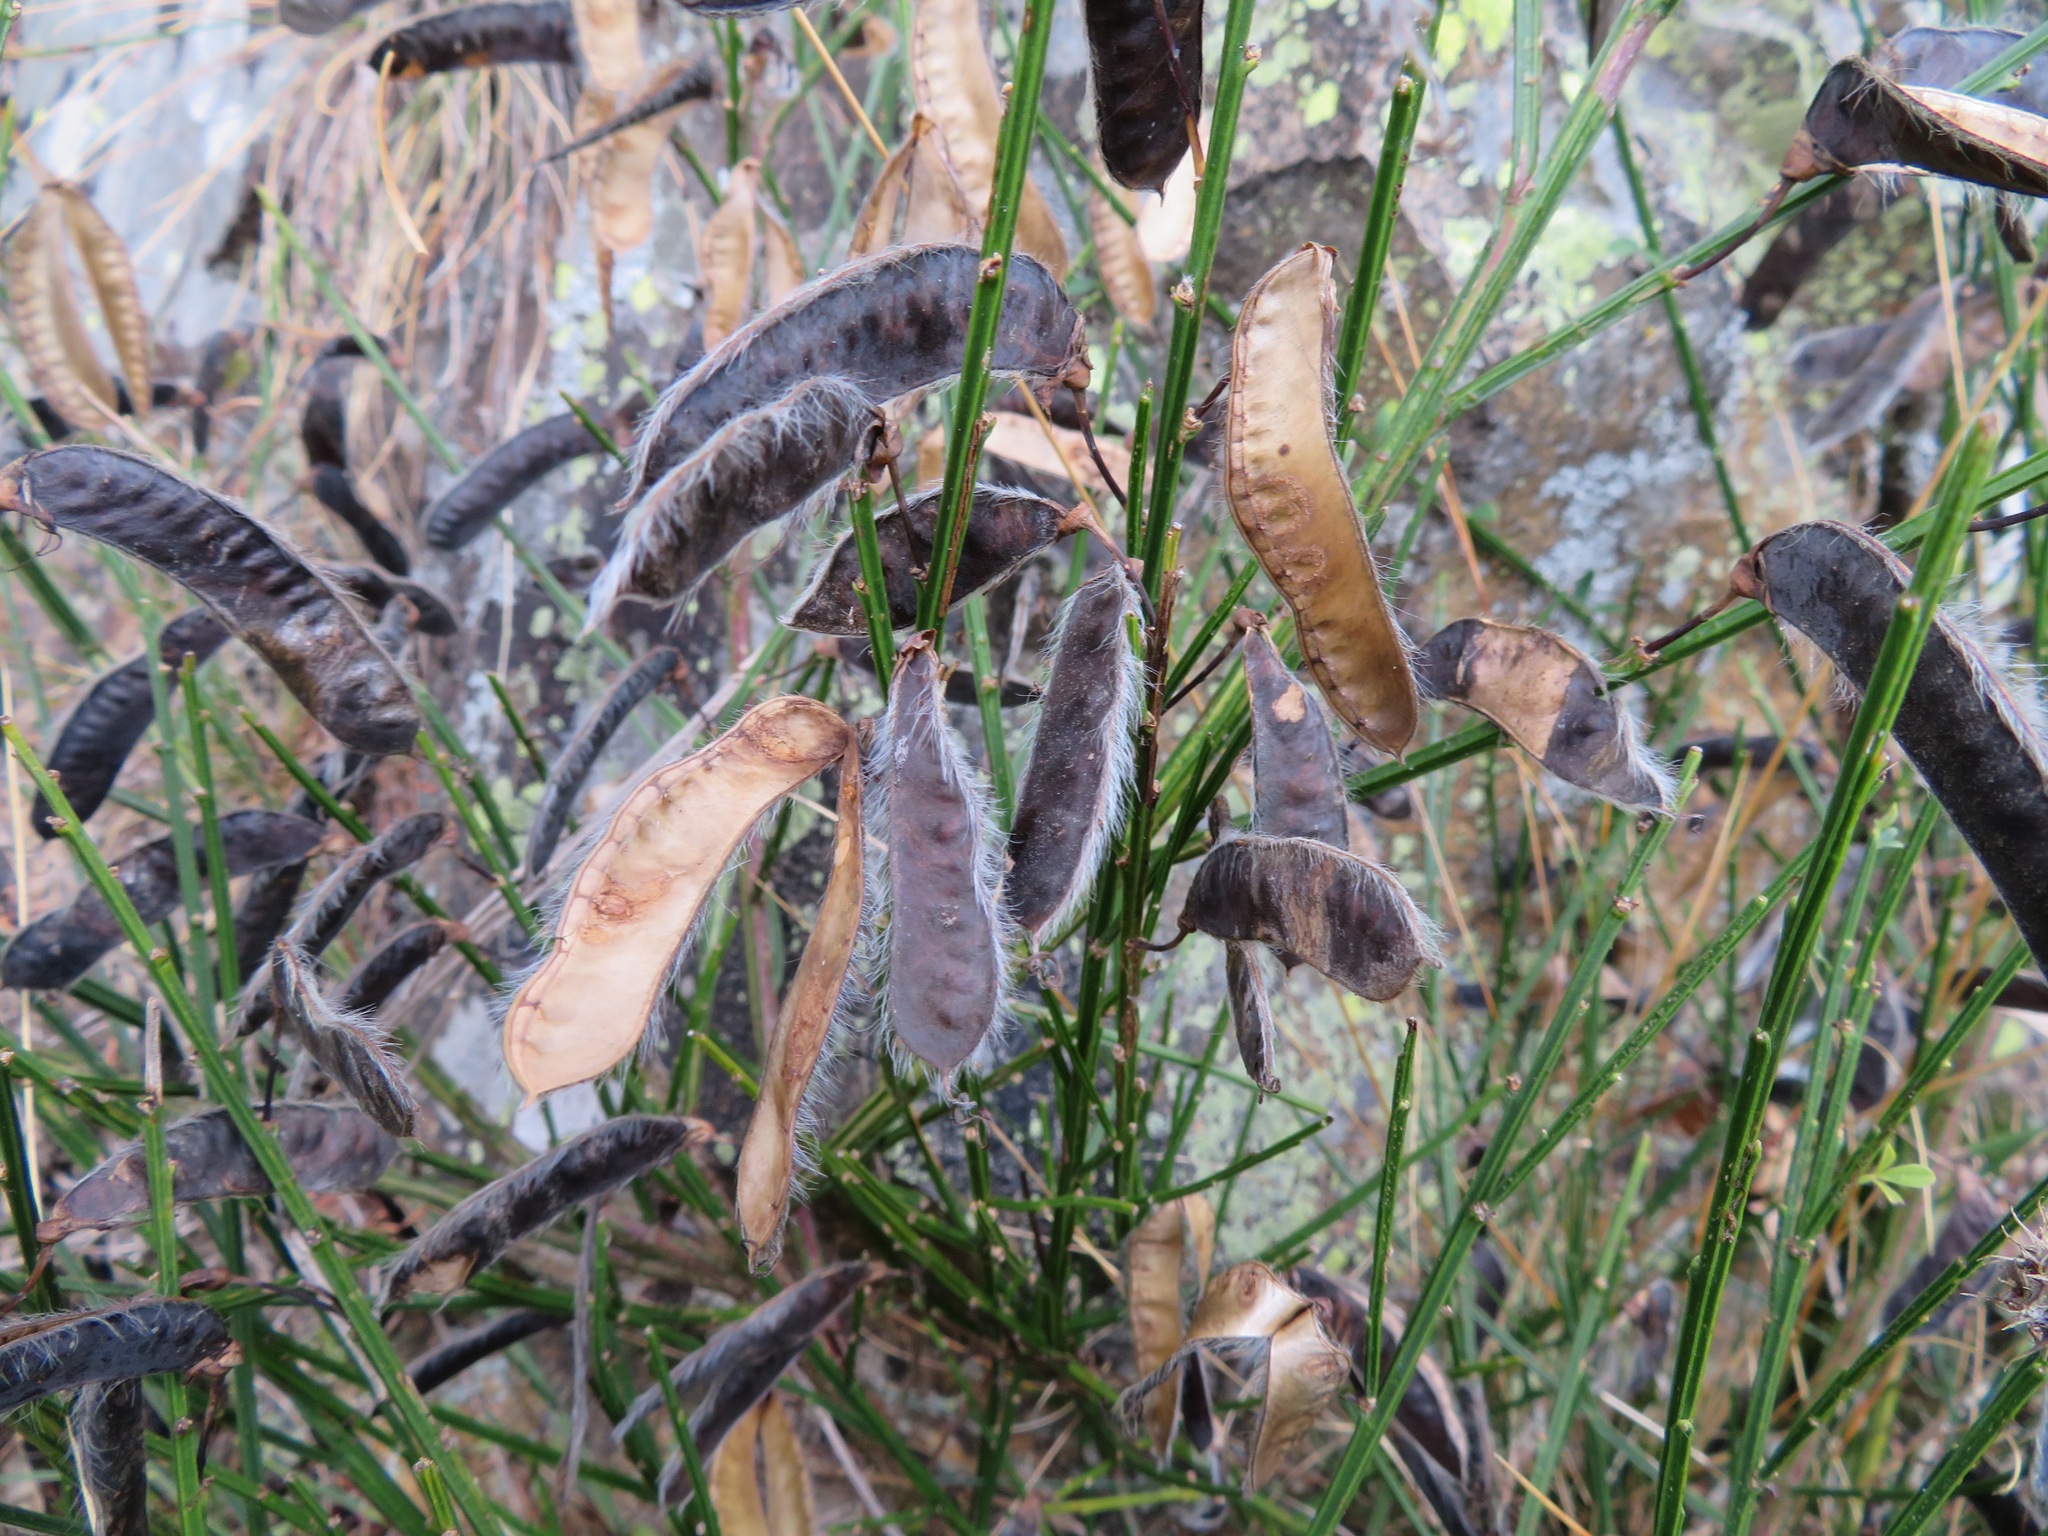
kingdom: Plantae
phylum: Tracheophyta
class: Magnoliopsida
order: Fabales
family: Fabaceae
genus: Cytisus
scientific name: Cytisus scoparius
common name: Scotch broom
